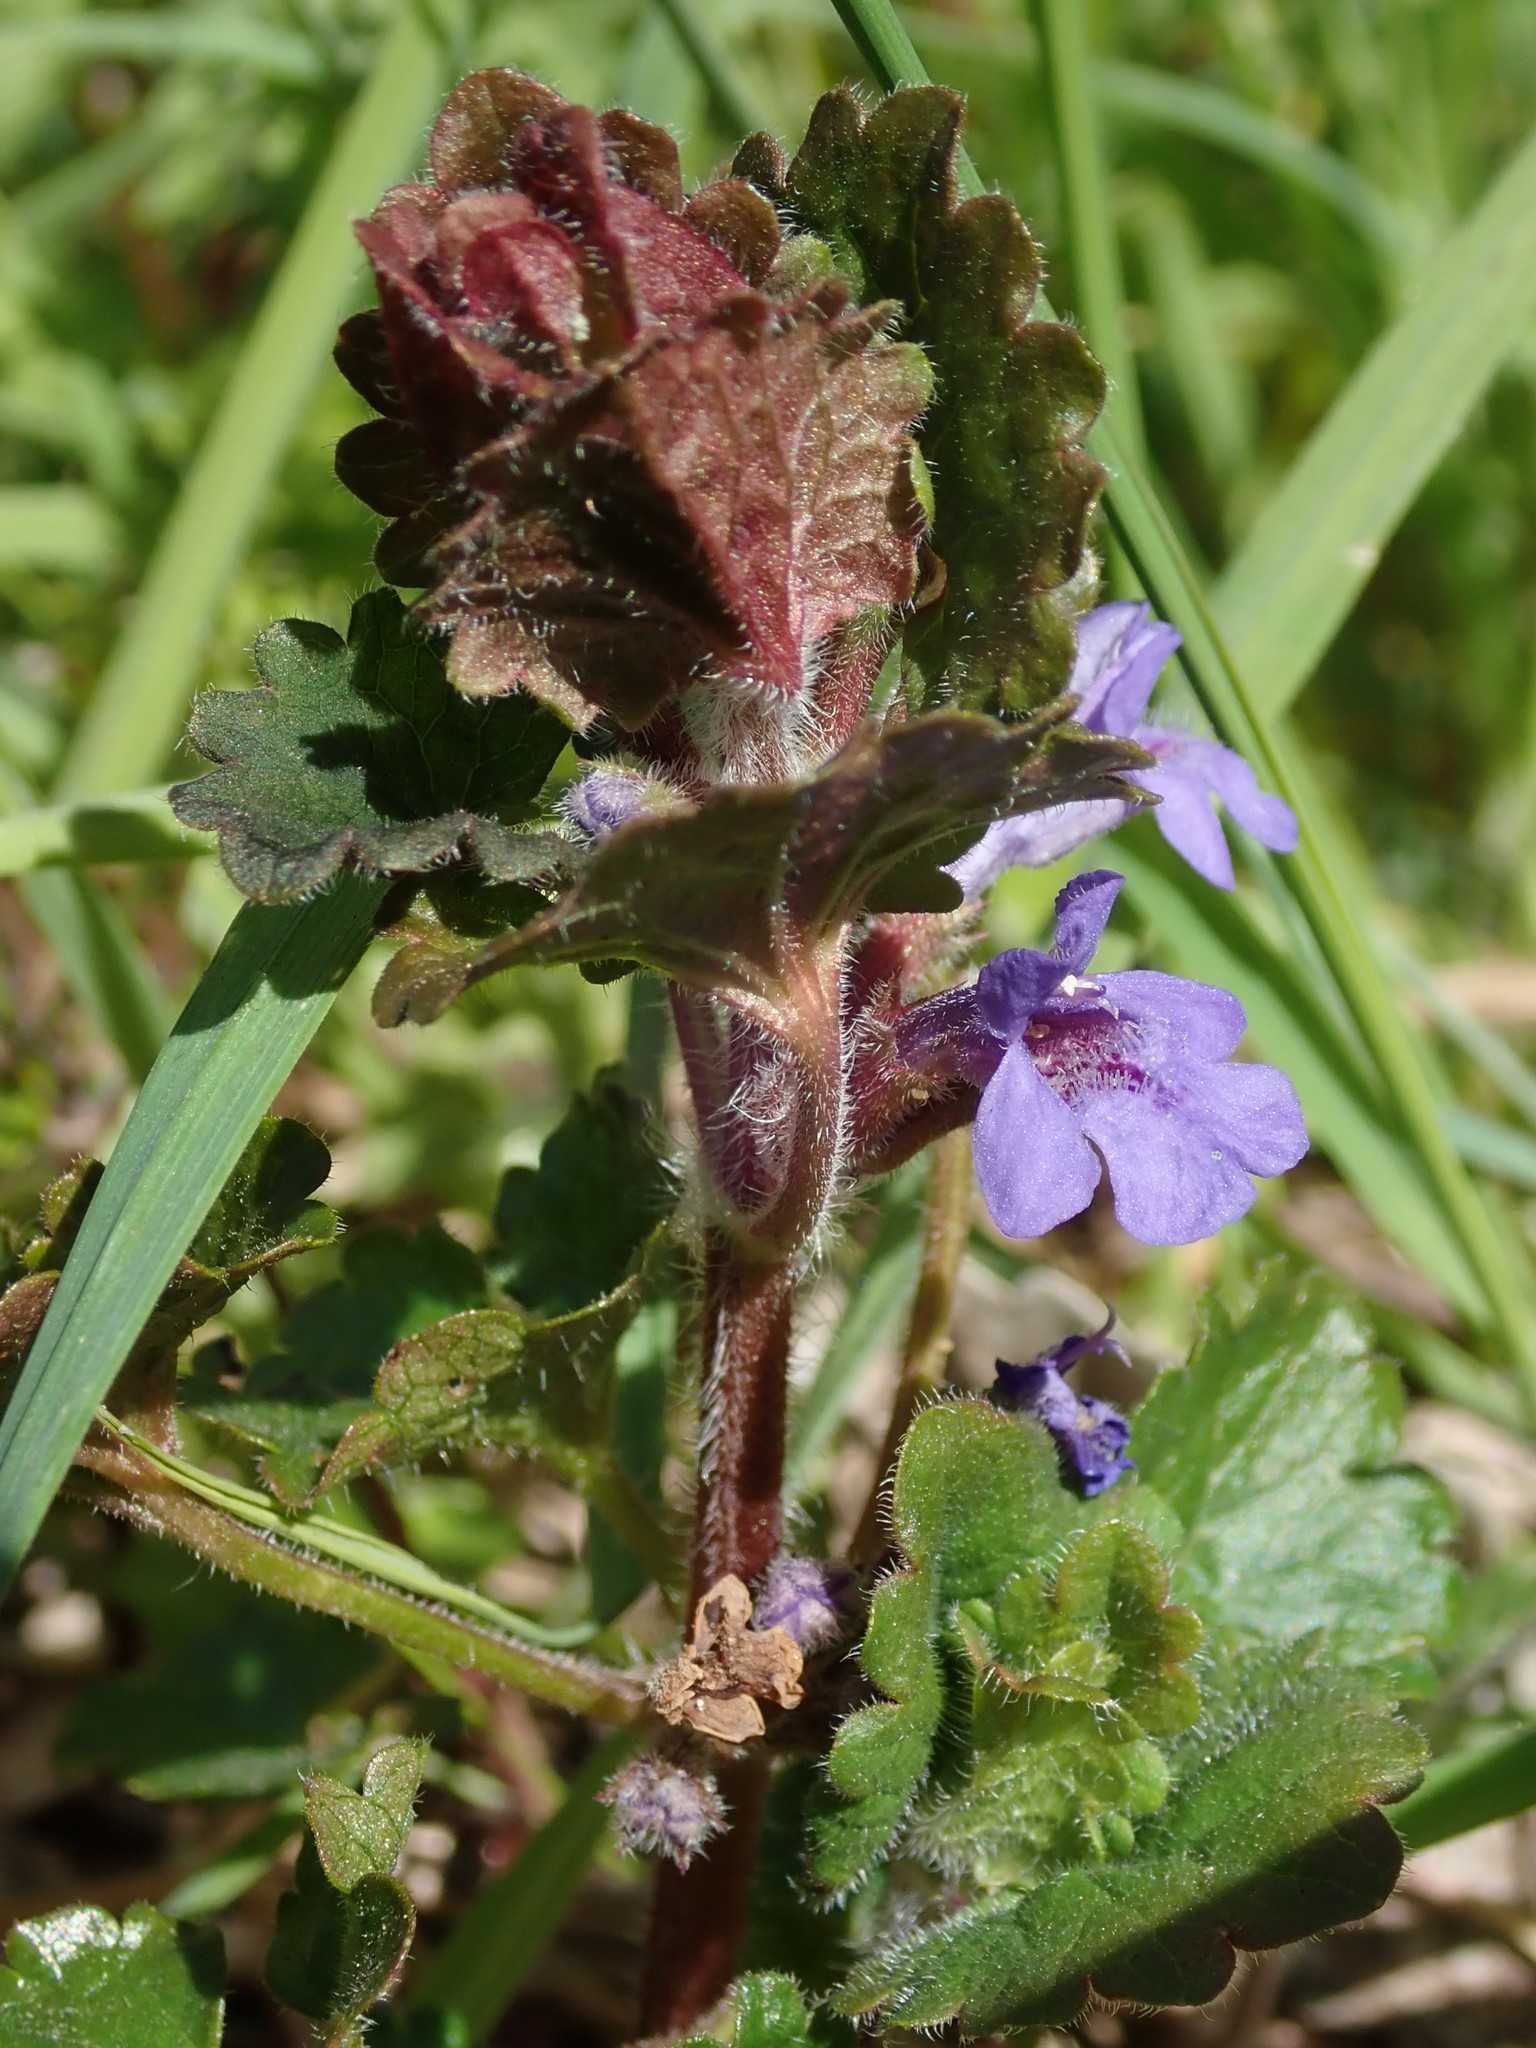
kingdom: Plantae
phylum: Tracheophyta
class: Magnoliopsida
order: Lamiales
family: Lamiaceae
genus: Glechoma
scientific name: Glechoma hederacea
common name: Ground ivy
